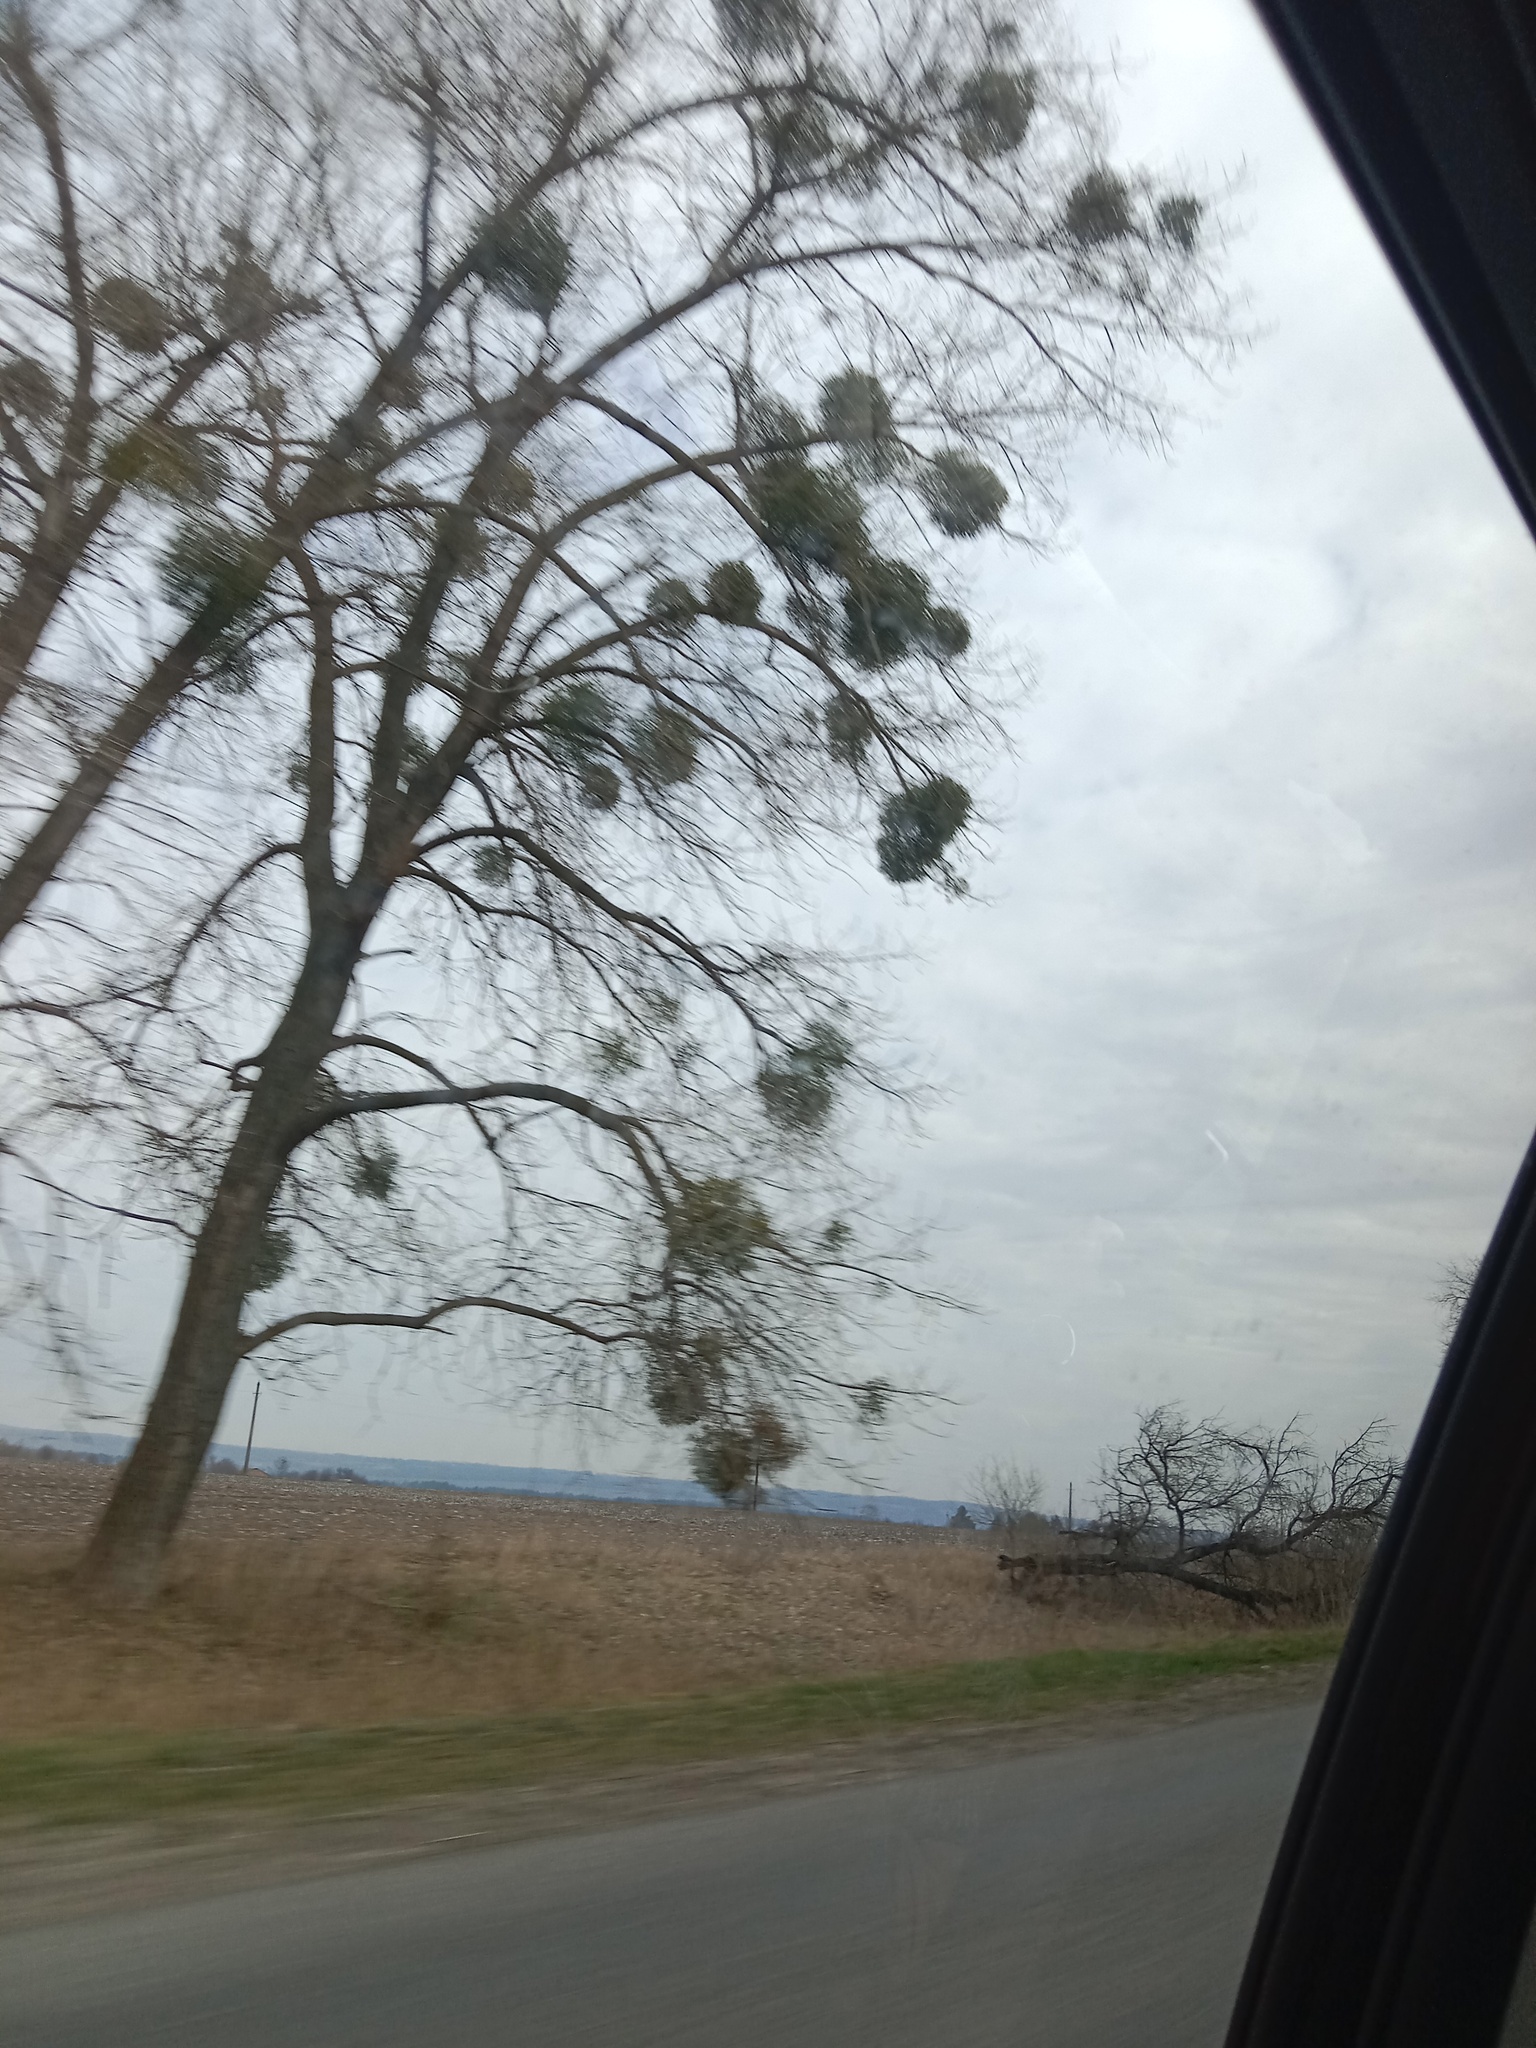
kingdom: Plantae
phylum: Tracheophyta
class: Magnoliopsida
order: Santalales
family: Viscaceae
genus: Viscum
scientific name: Viscum album
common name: Mistletoe
